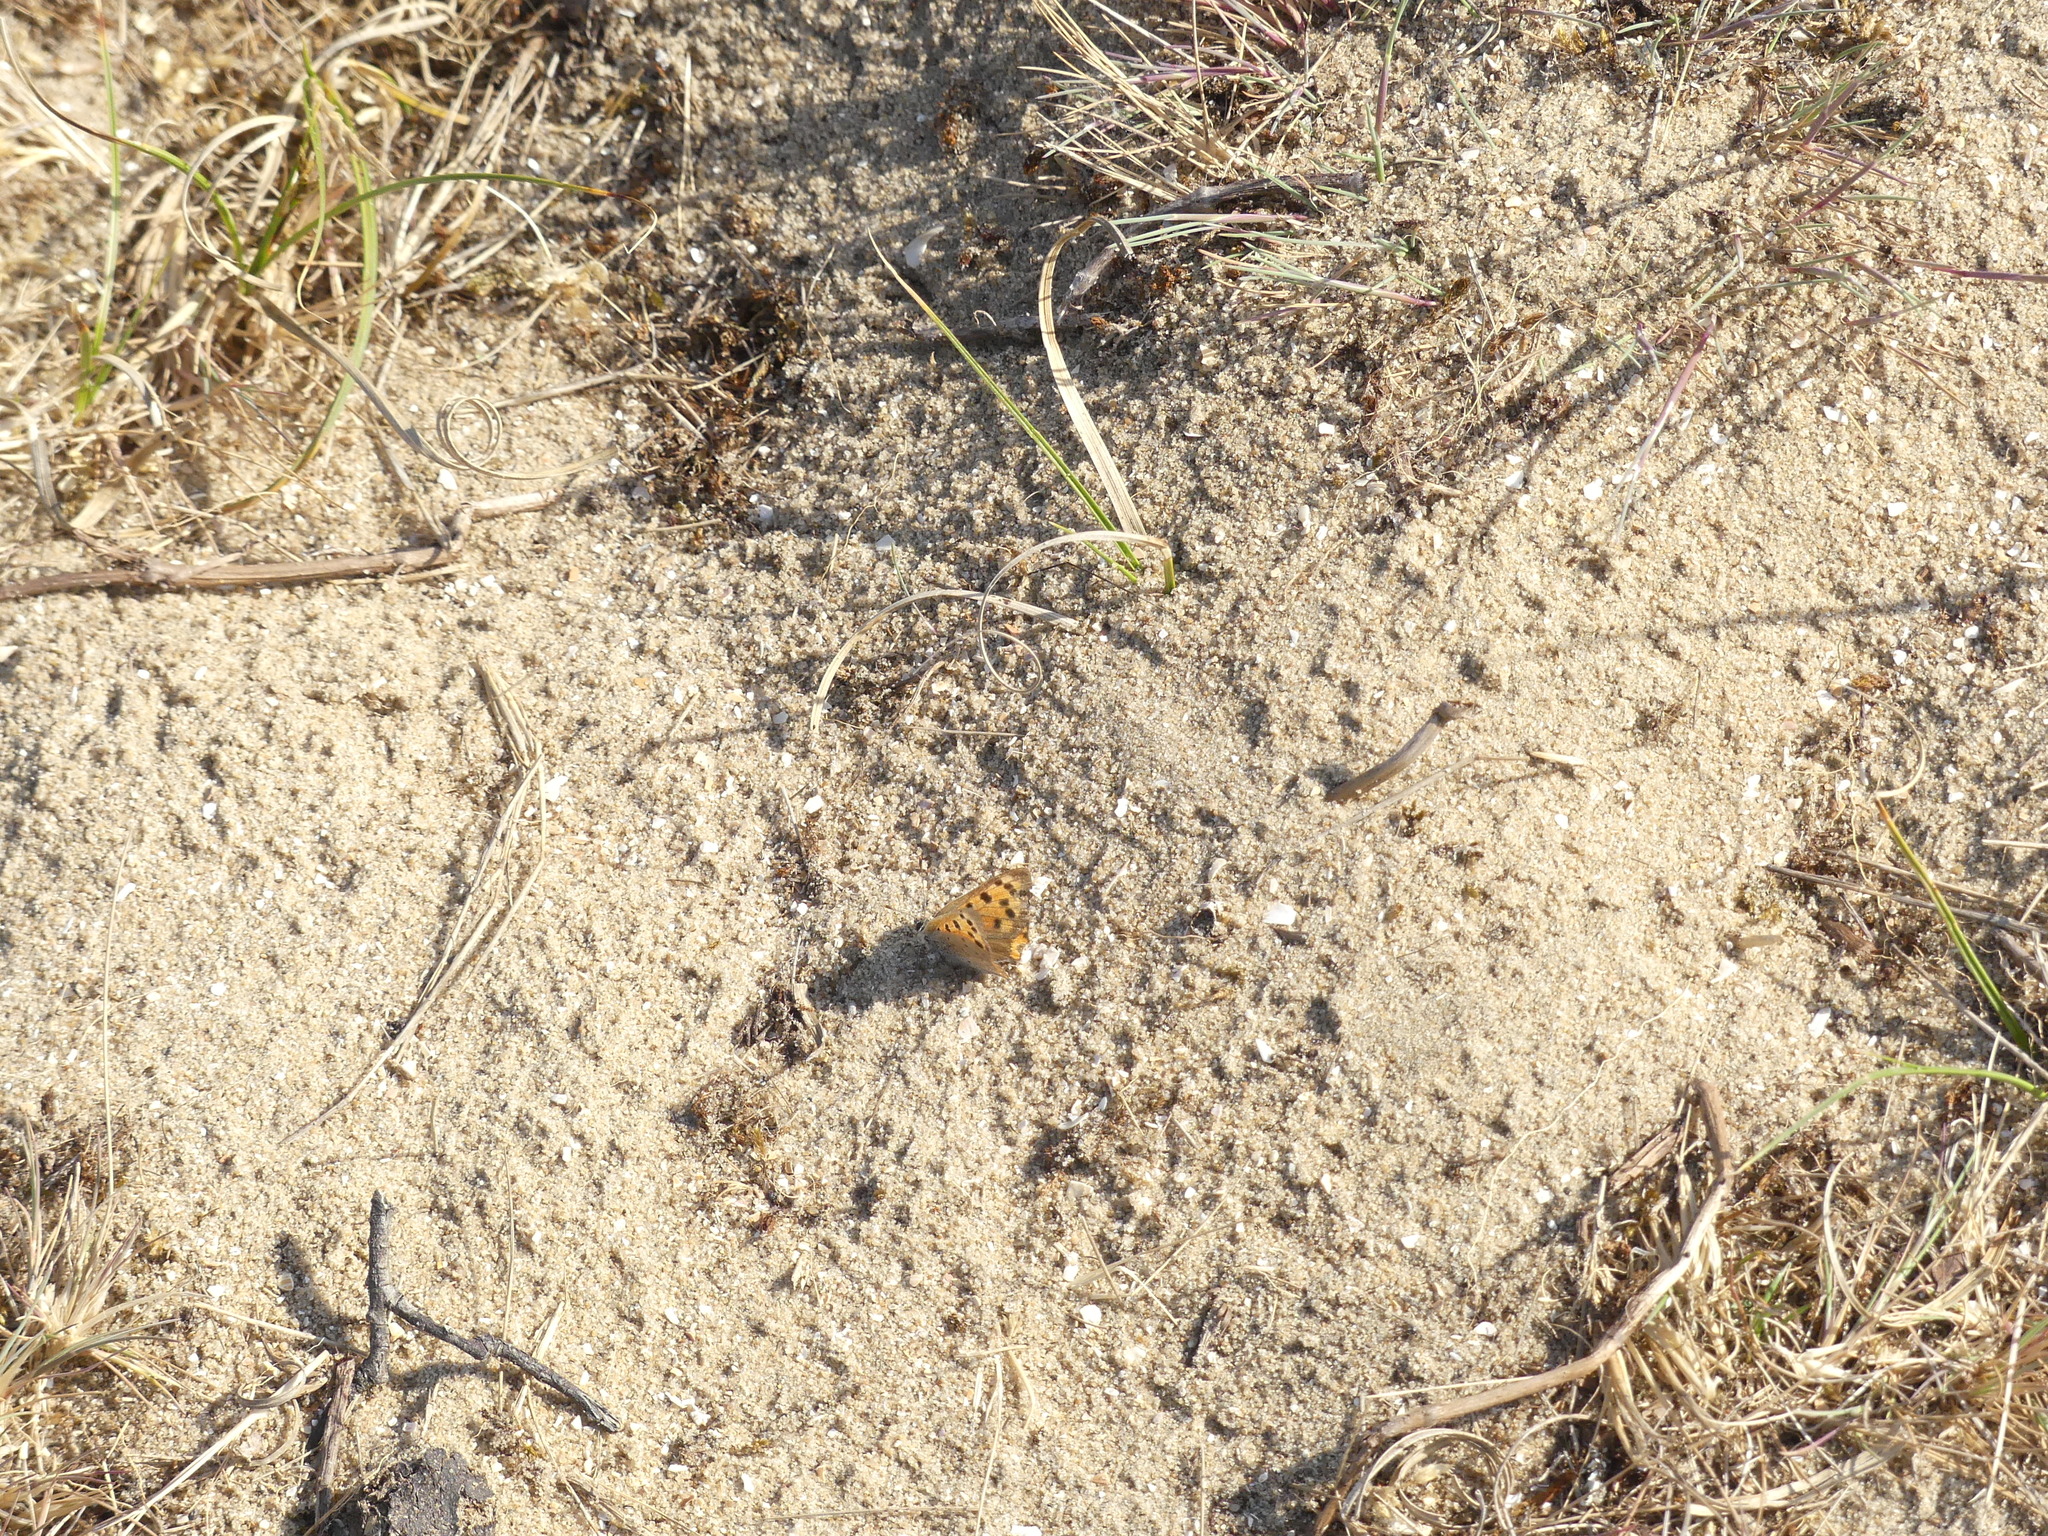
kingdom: Animalia
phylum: Arthropoda
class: Insecta
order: Lepidoptera
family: Lycaenidae
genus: Lycaena
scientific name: Lycaena phlaeas
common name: Small copper
